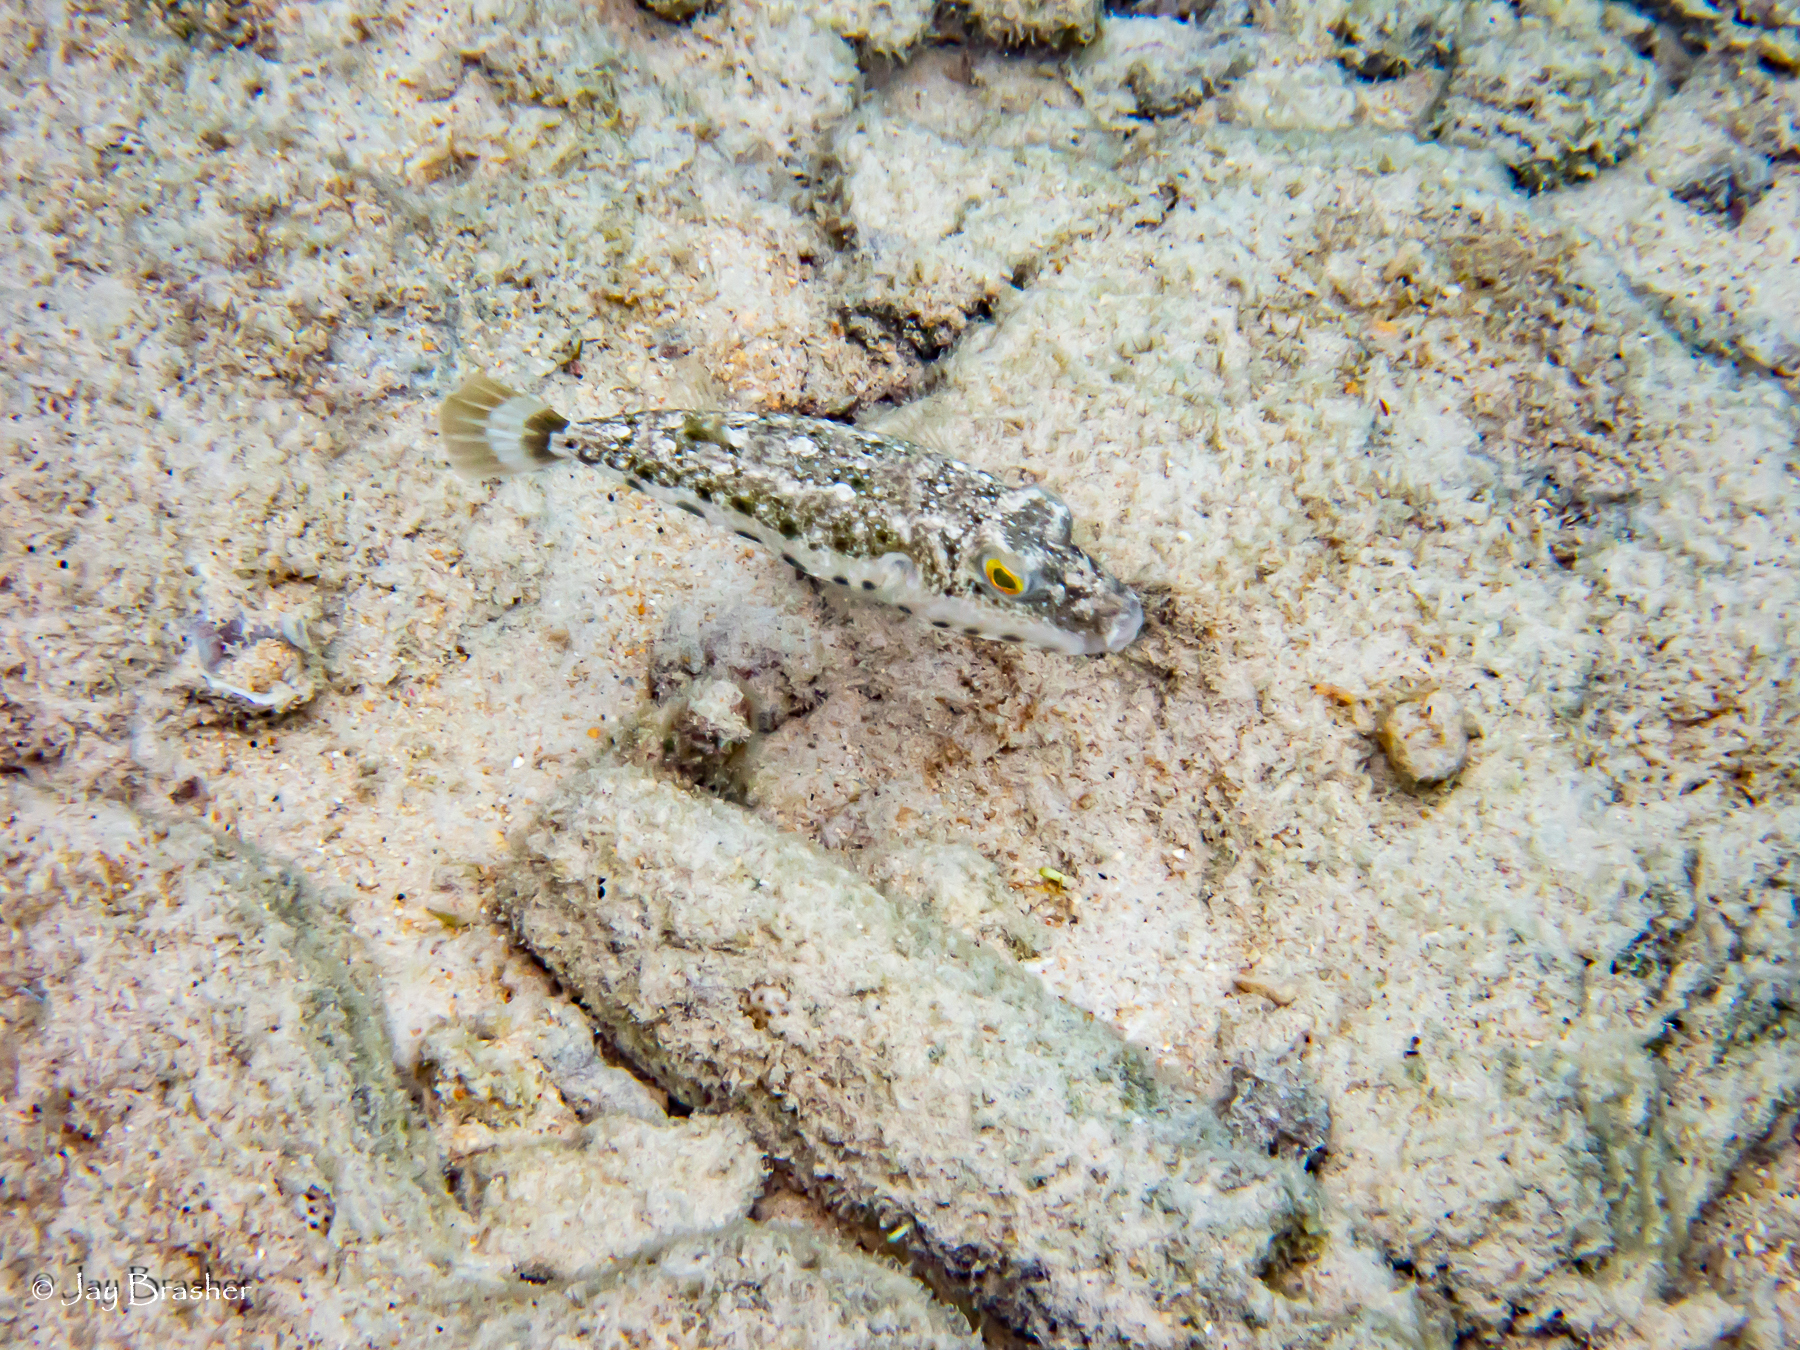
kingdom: Animalia
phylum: Chordata
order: Tetraodontiformes
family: Tetraodontidae
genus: Sphoeroides
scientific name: Sphoeroides spengleri
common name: Bandtail puffer
